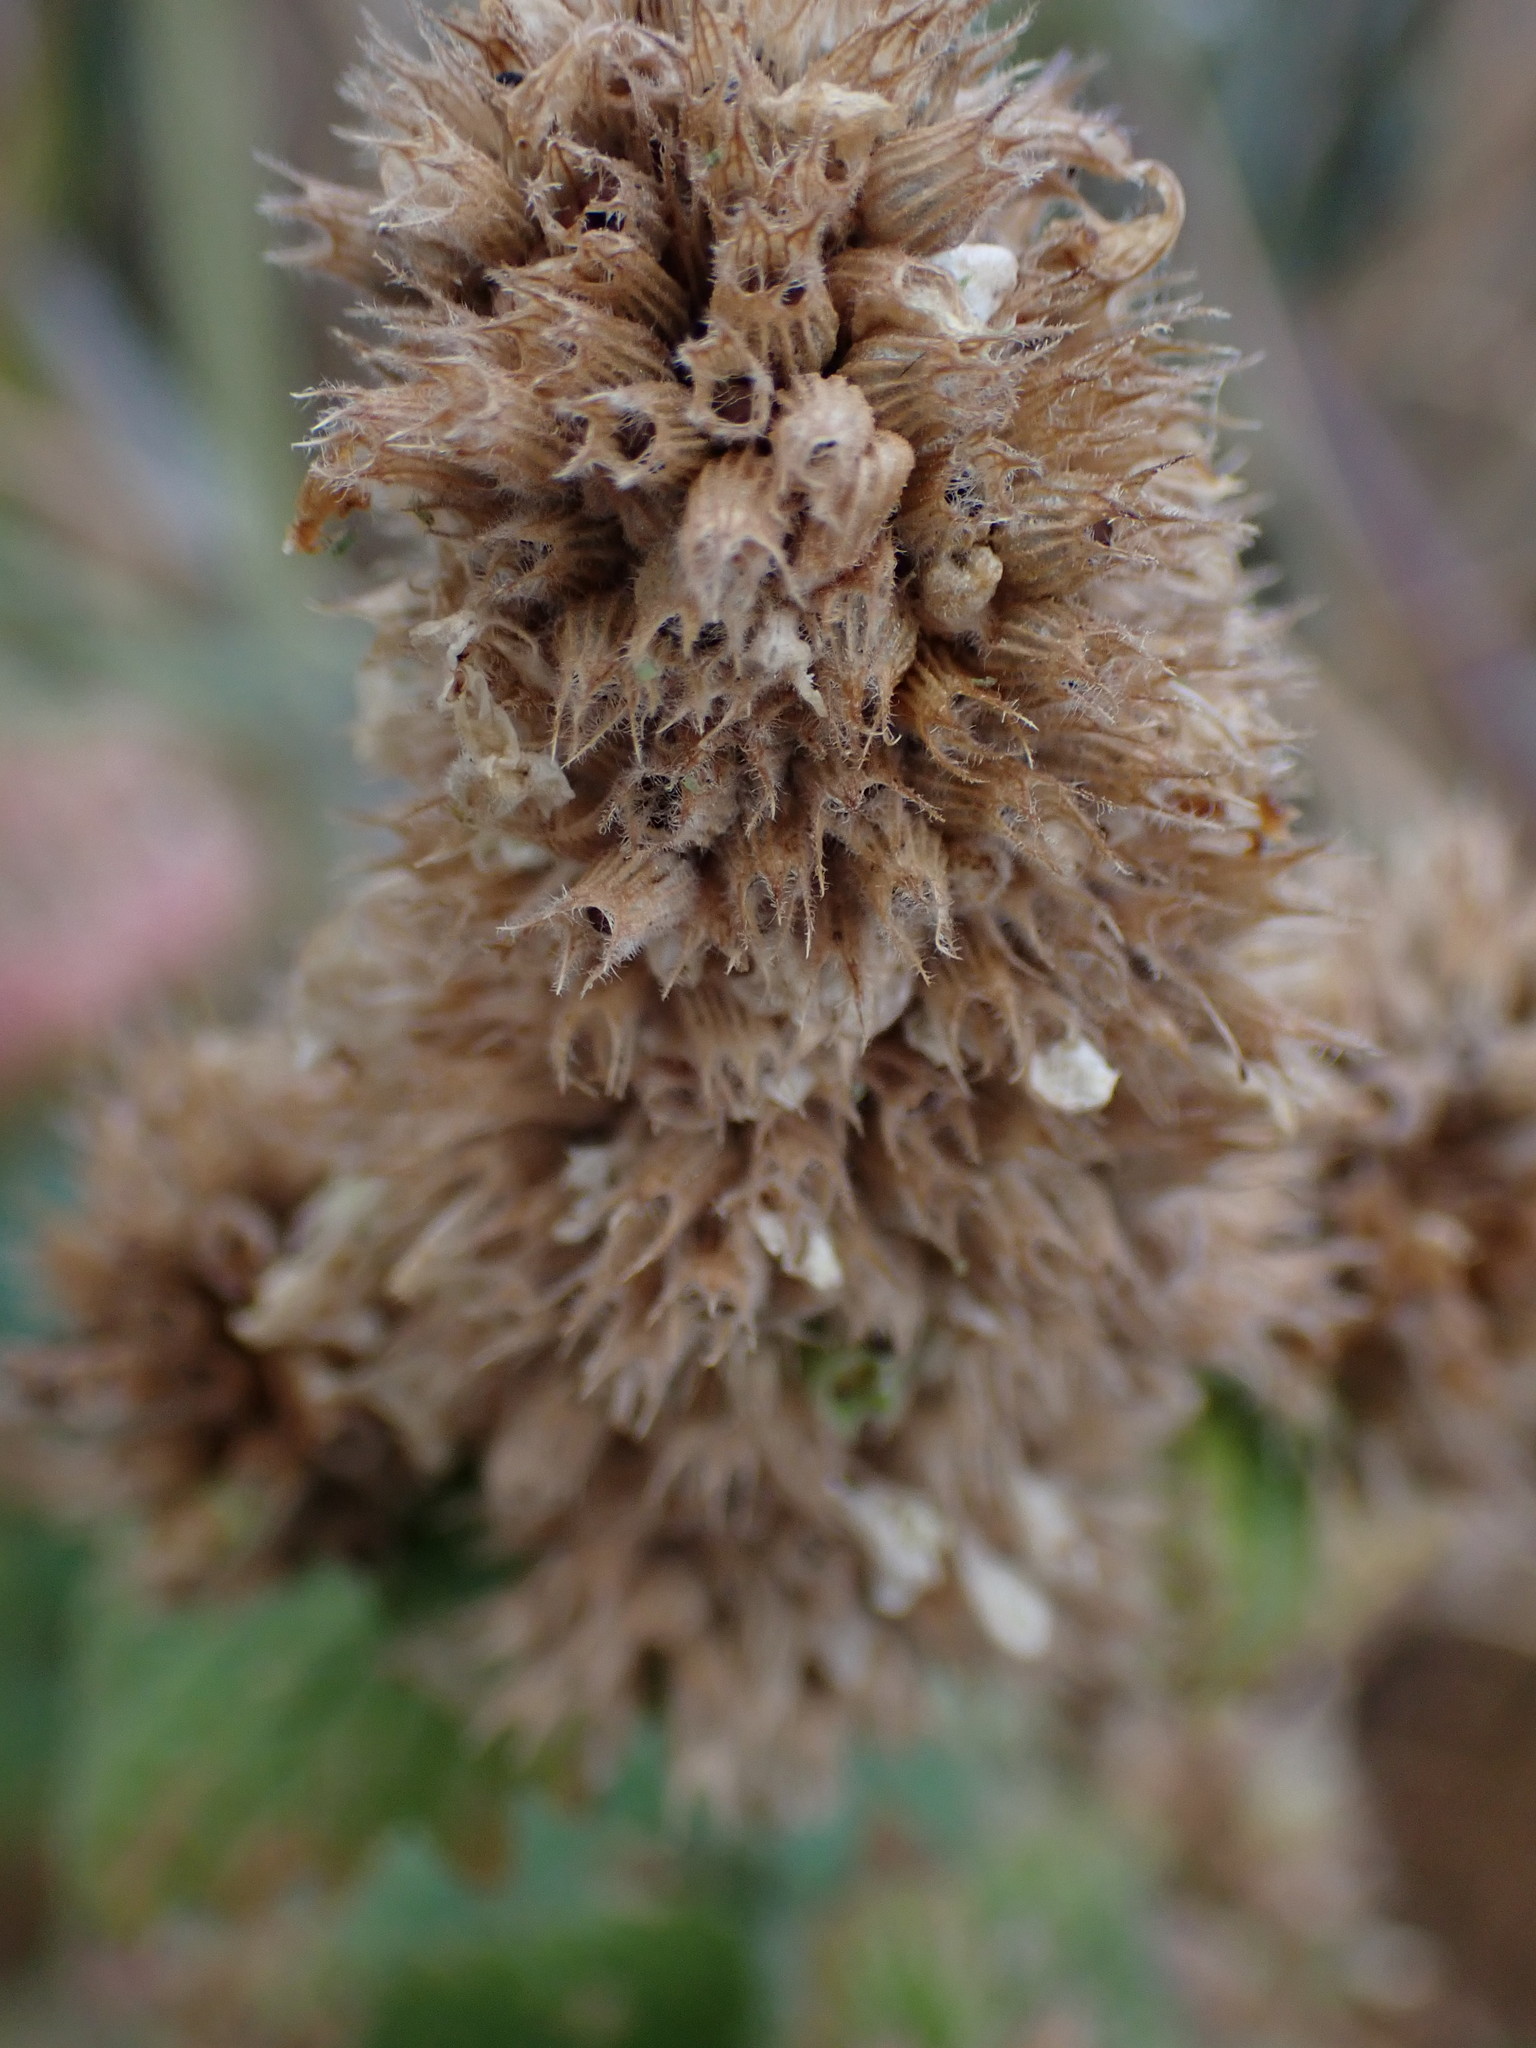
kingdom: Plantae
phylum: Tracheophyta
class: Magnoliopsida
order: Lamiales
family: Lamiaceae
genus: Nepeta
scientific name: Nepeta cataria
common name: Catnip
